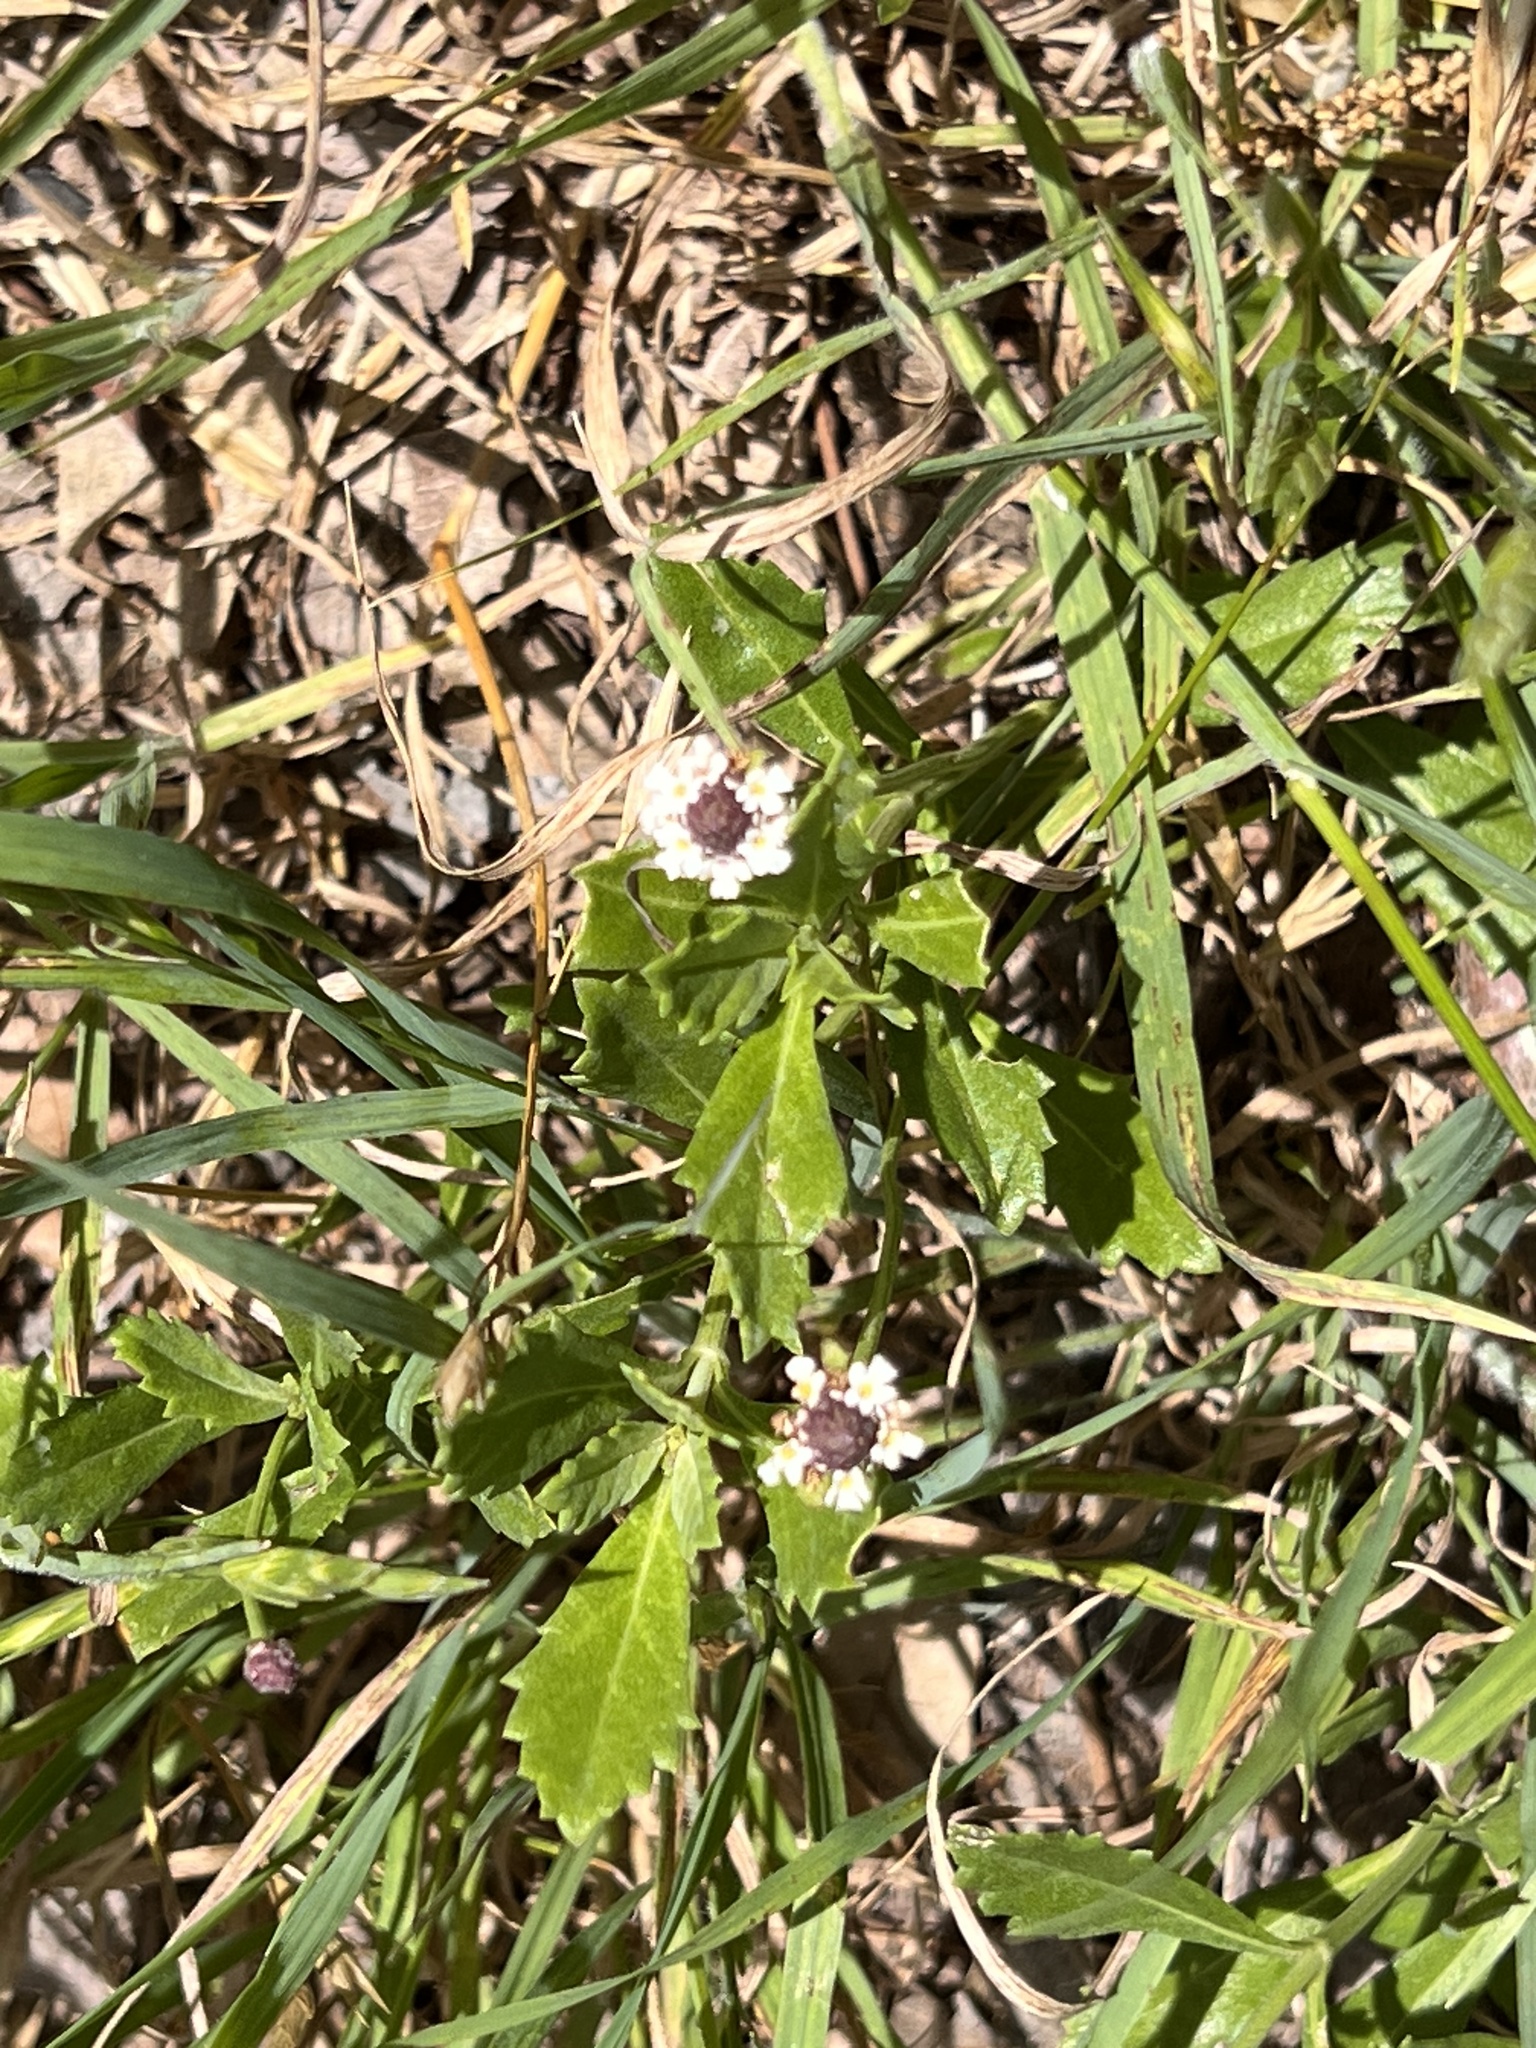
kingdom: Plantae
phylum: Tracheophyta
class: Magnoliopsida
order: Lamiales
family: Verbenaceae
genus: Phyla
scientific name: Phyla nodiflora
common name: Frogfruit
